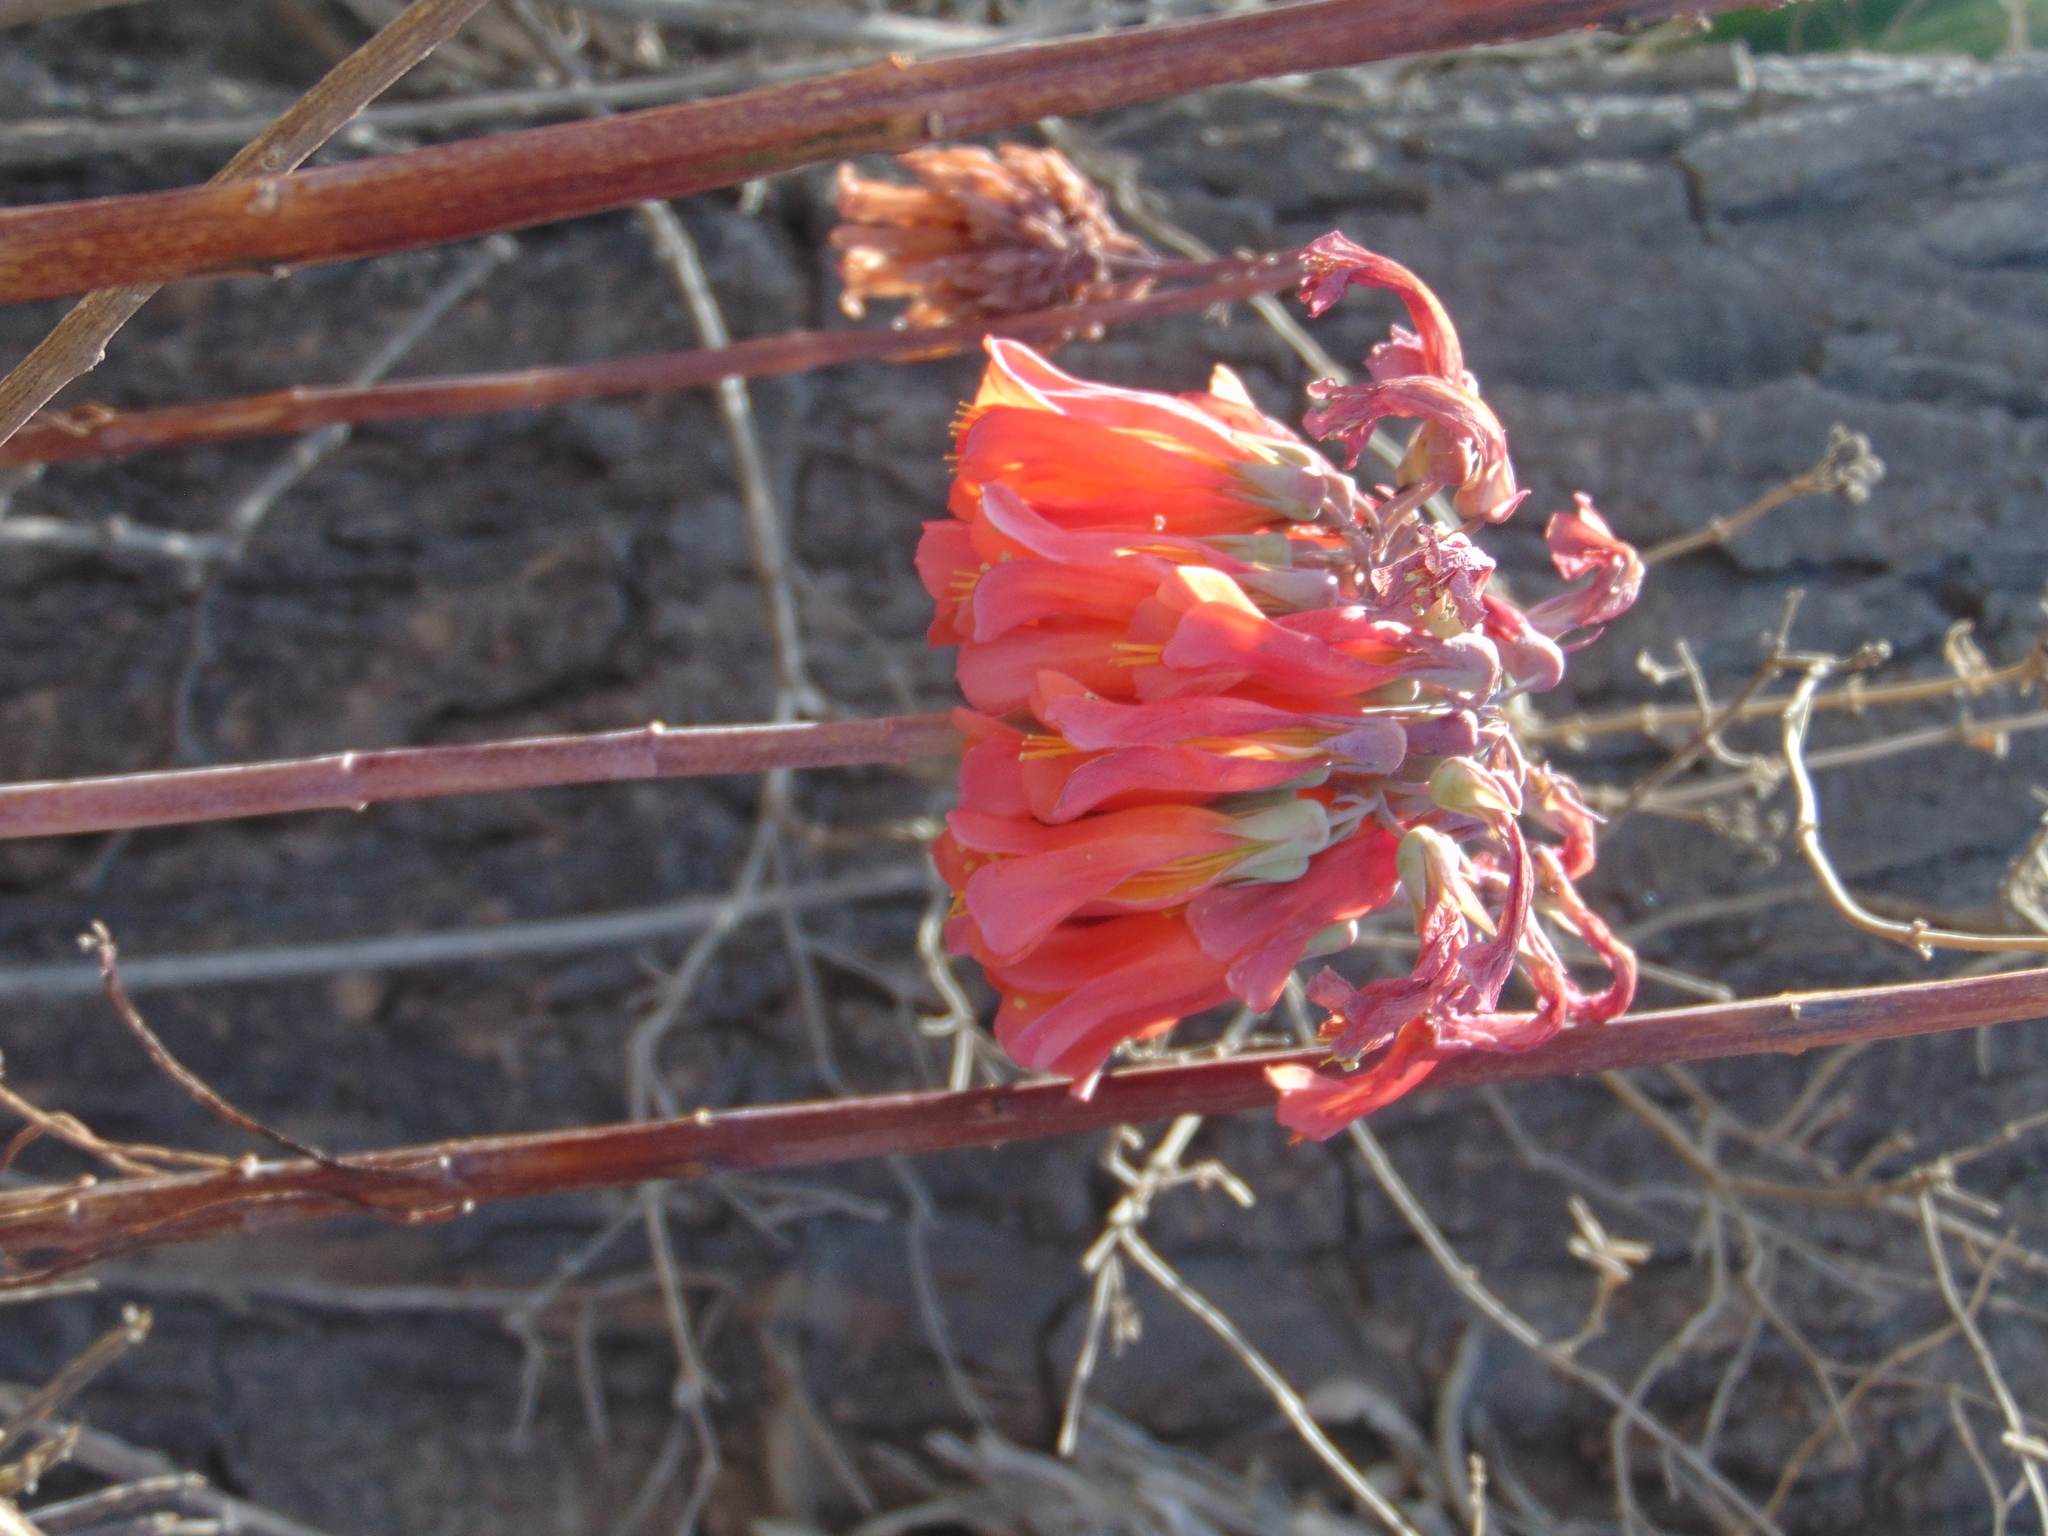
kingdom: Plantae
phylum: Tracheophyta
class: Magnoliopsida
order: Saxifragales
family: Crassulaceae
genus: Kalanchoe
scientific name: Kalanchoe delagoensis
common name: Chandelier plant
